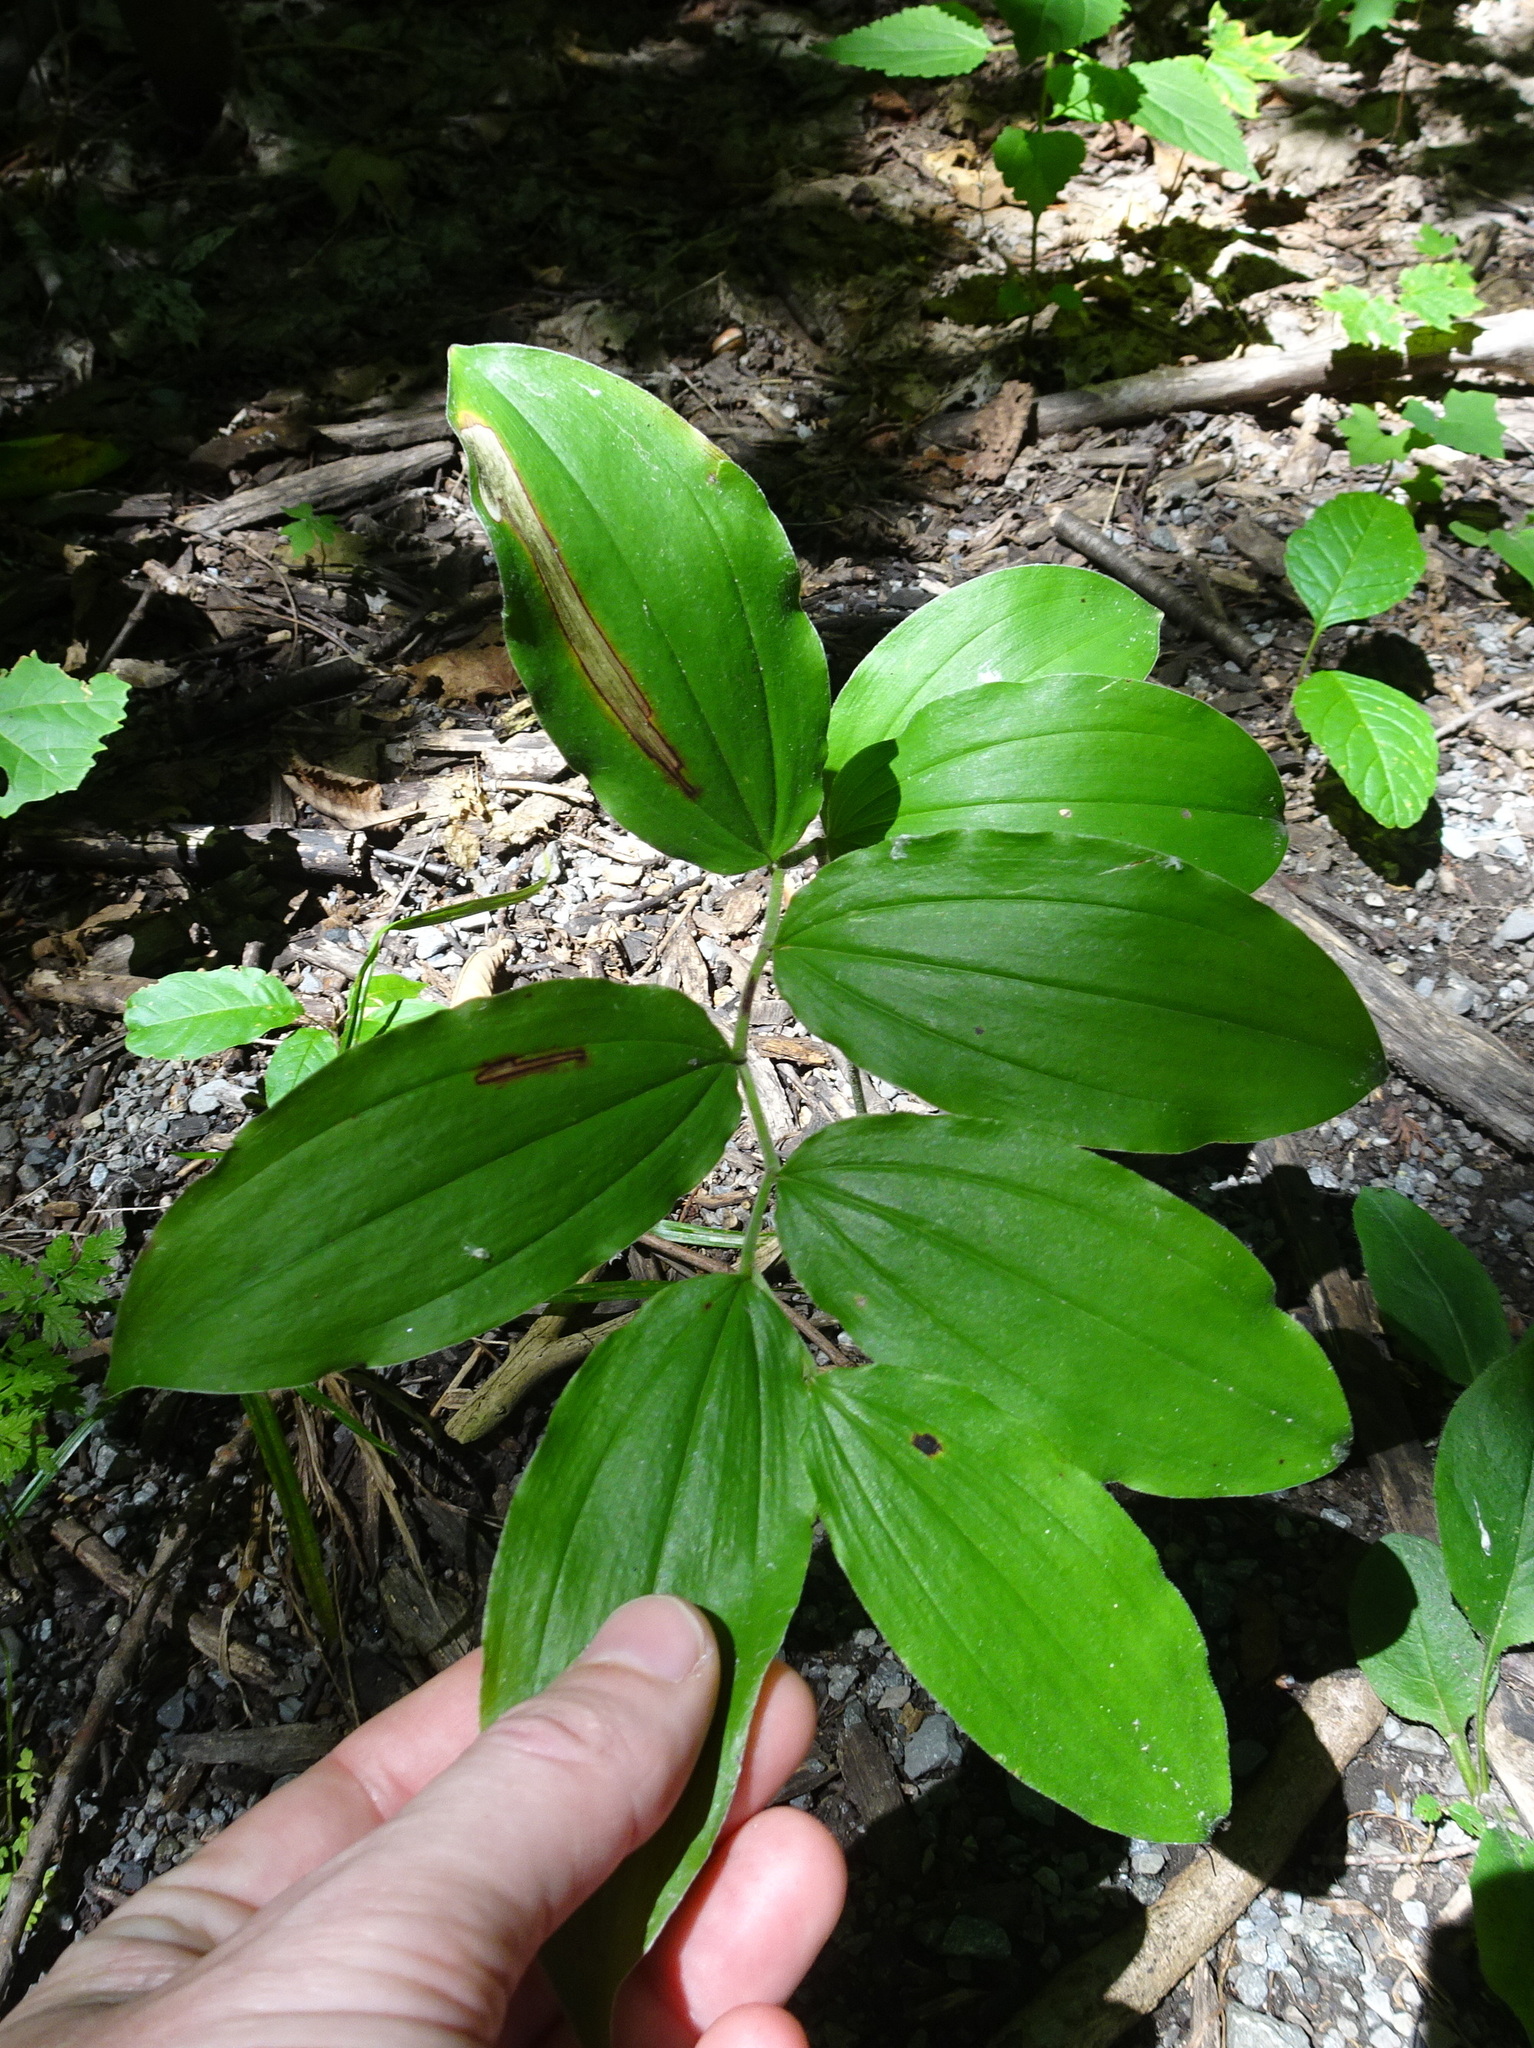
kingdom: Plantae
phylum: Tracheophyta
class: Liliopsida
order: Asparagales
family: Asparagaceae
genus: Maianthemum
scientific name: Maianthemum racemosum
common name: False spikenard
